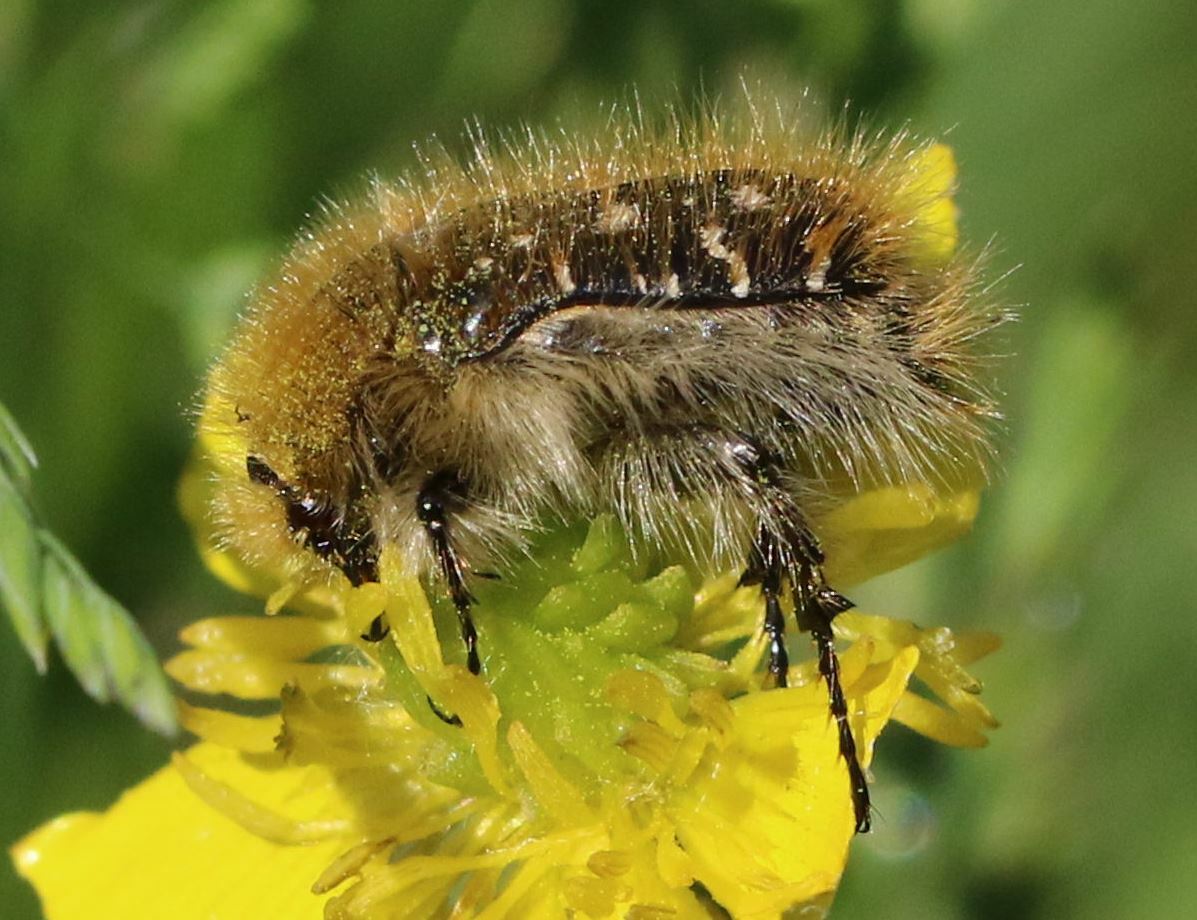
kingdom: Animalia
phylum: Arthropoda
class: Insecta
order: Coleoptera
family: Scarabaeidae
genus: Tropinota
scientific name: Tropinota squalida
